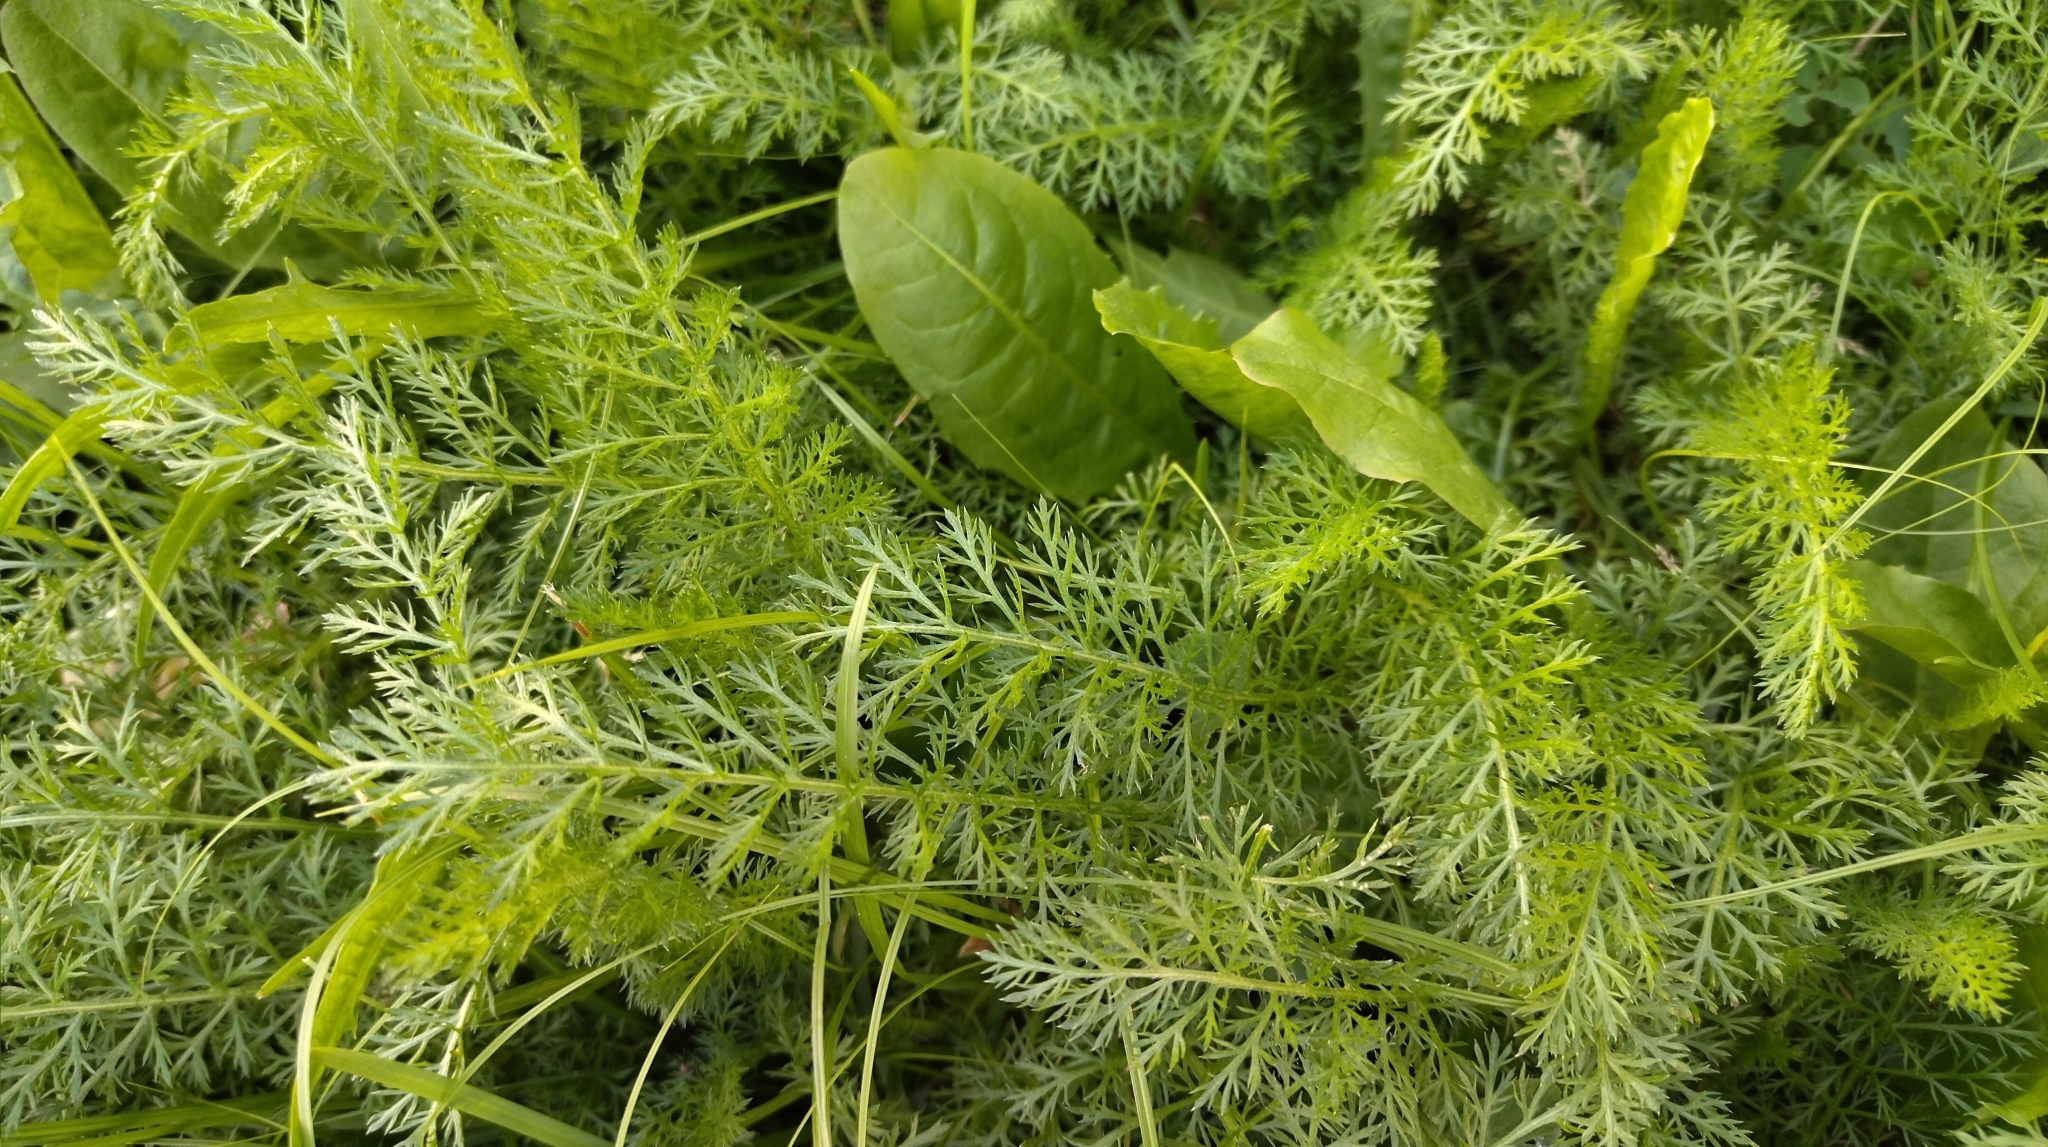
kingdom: Plantae
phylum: Tracheophyta
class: Magnoliopsida
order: Asterales
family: Asteraceae
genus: Achillea
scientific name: Achillea millefolium
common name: Yarrow
